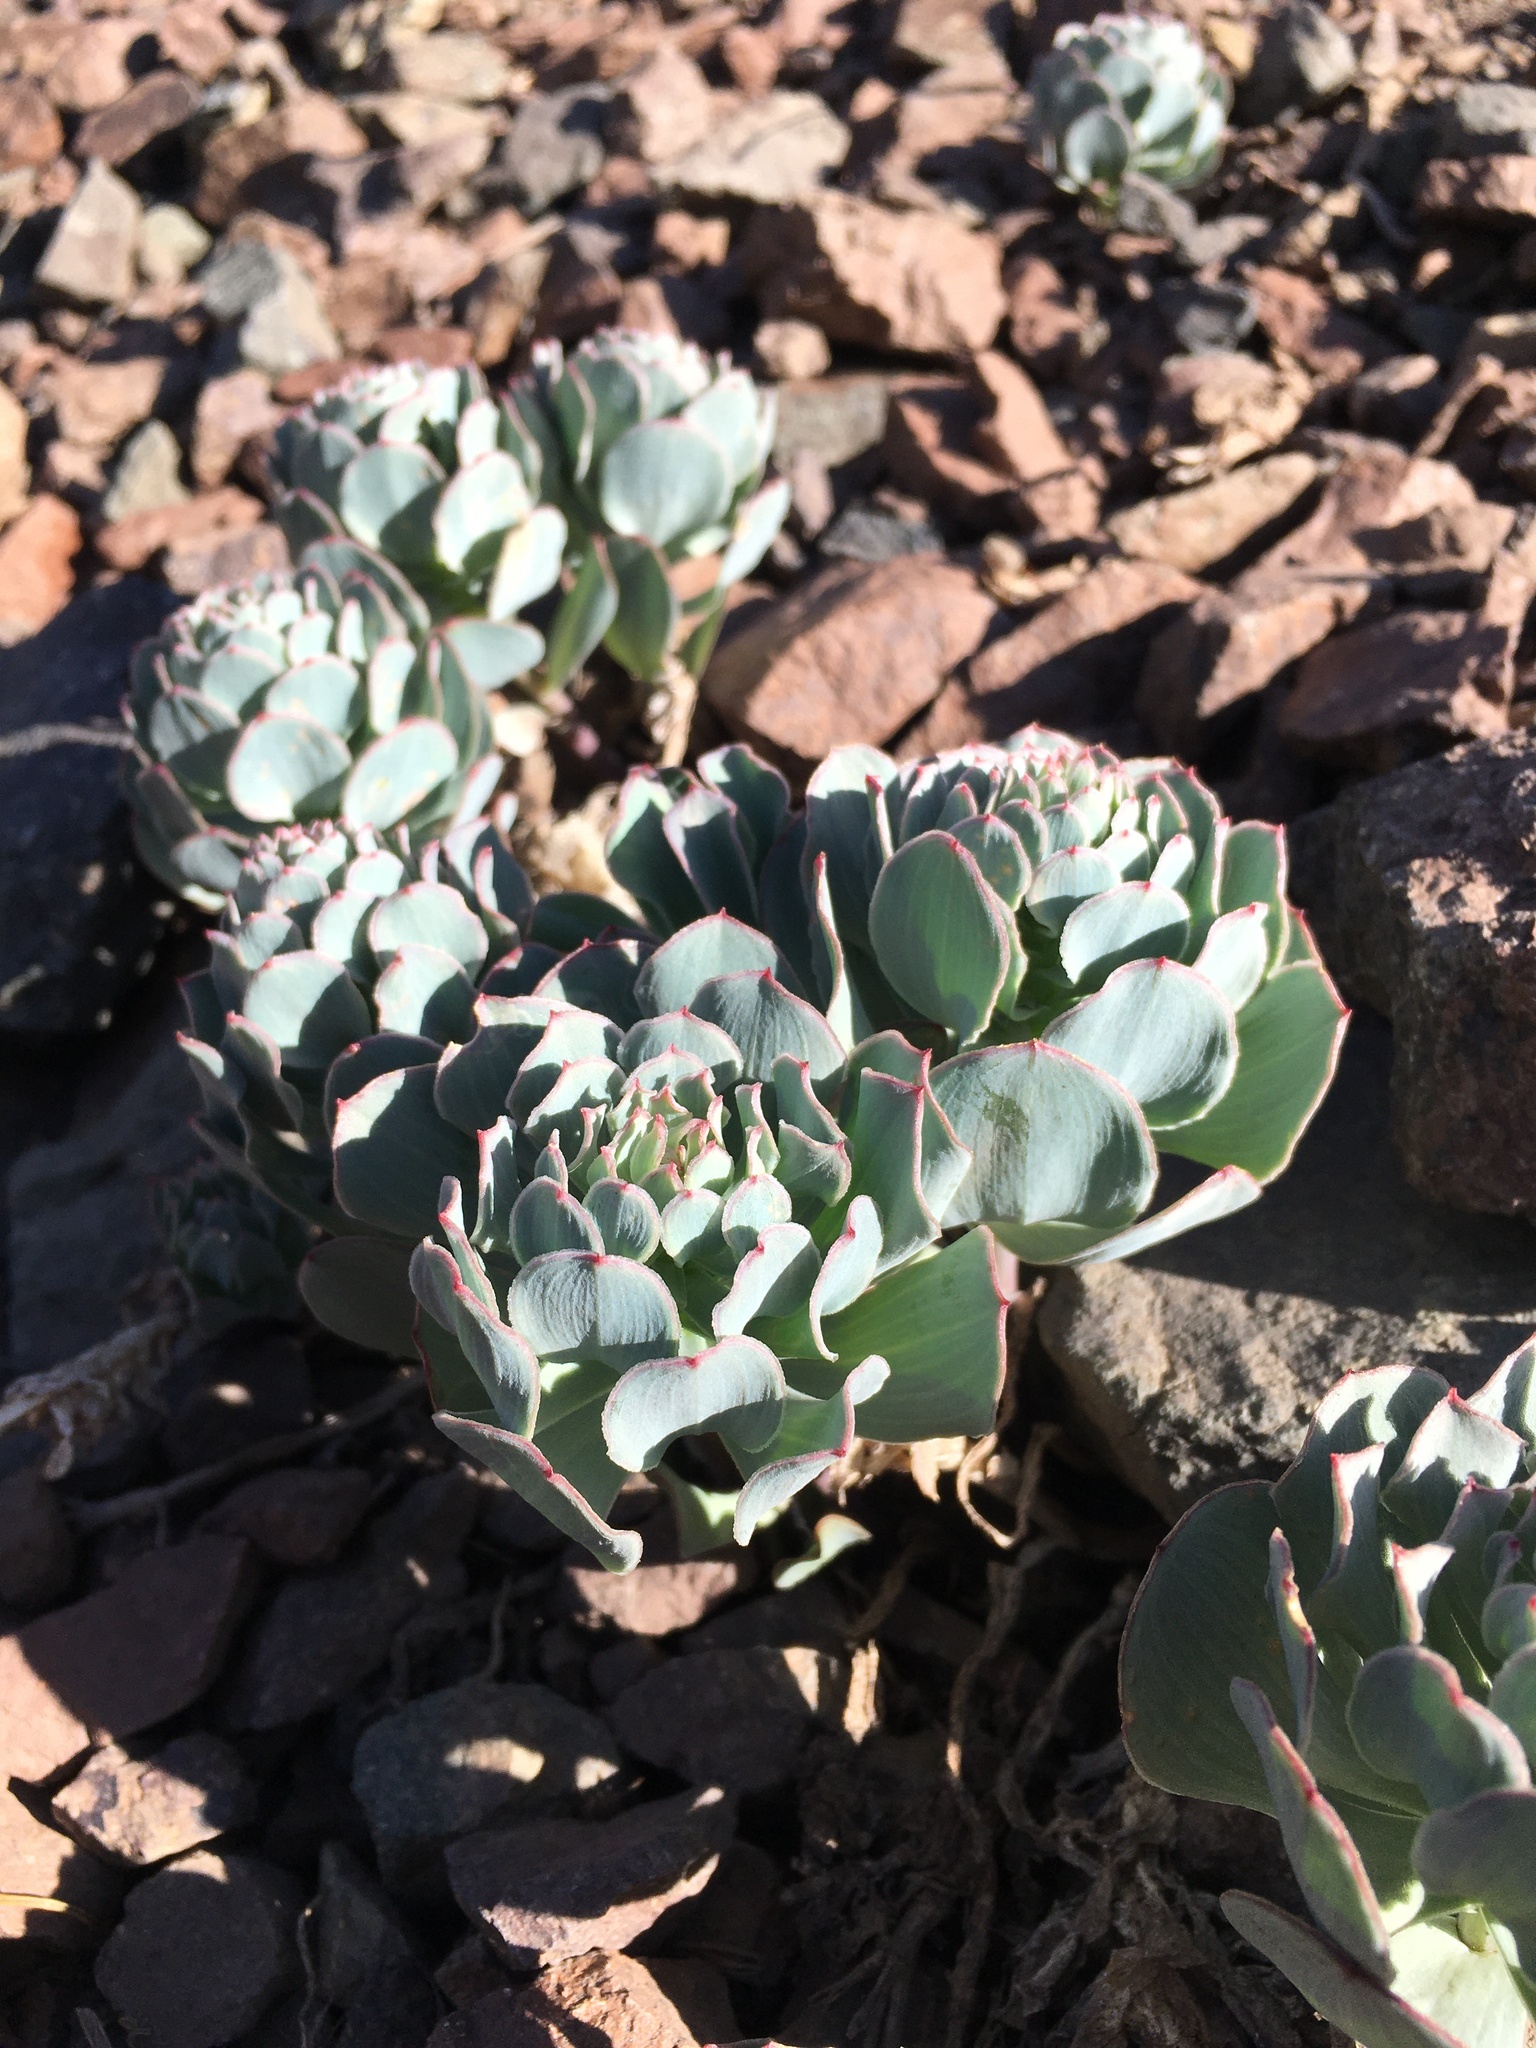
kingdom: Plantae
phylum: Tracheophyta
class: Liliopsida
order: Liliales
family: Alstroemeriaceae
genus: Alstroemeria
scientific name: Alstroemeria spathulata
